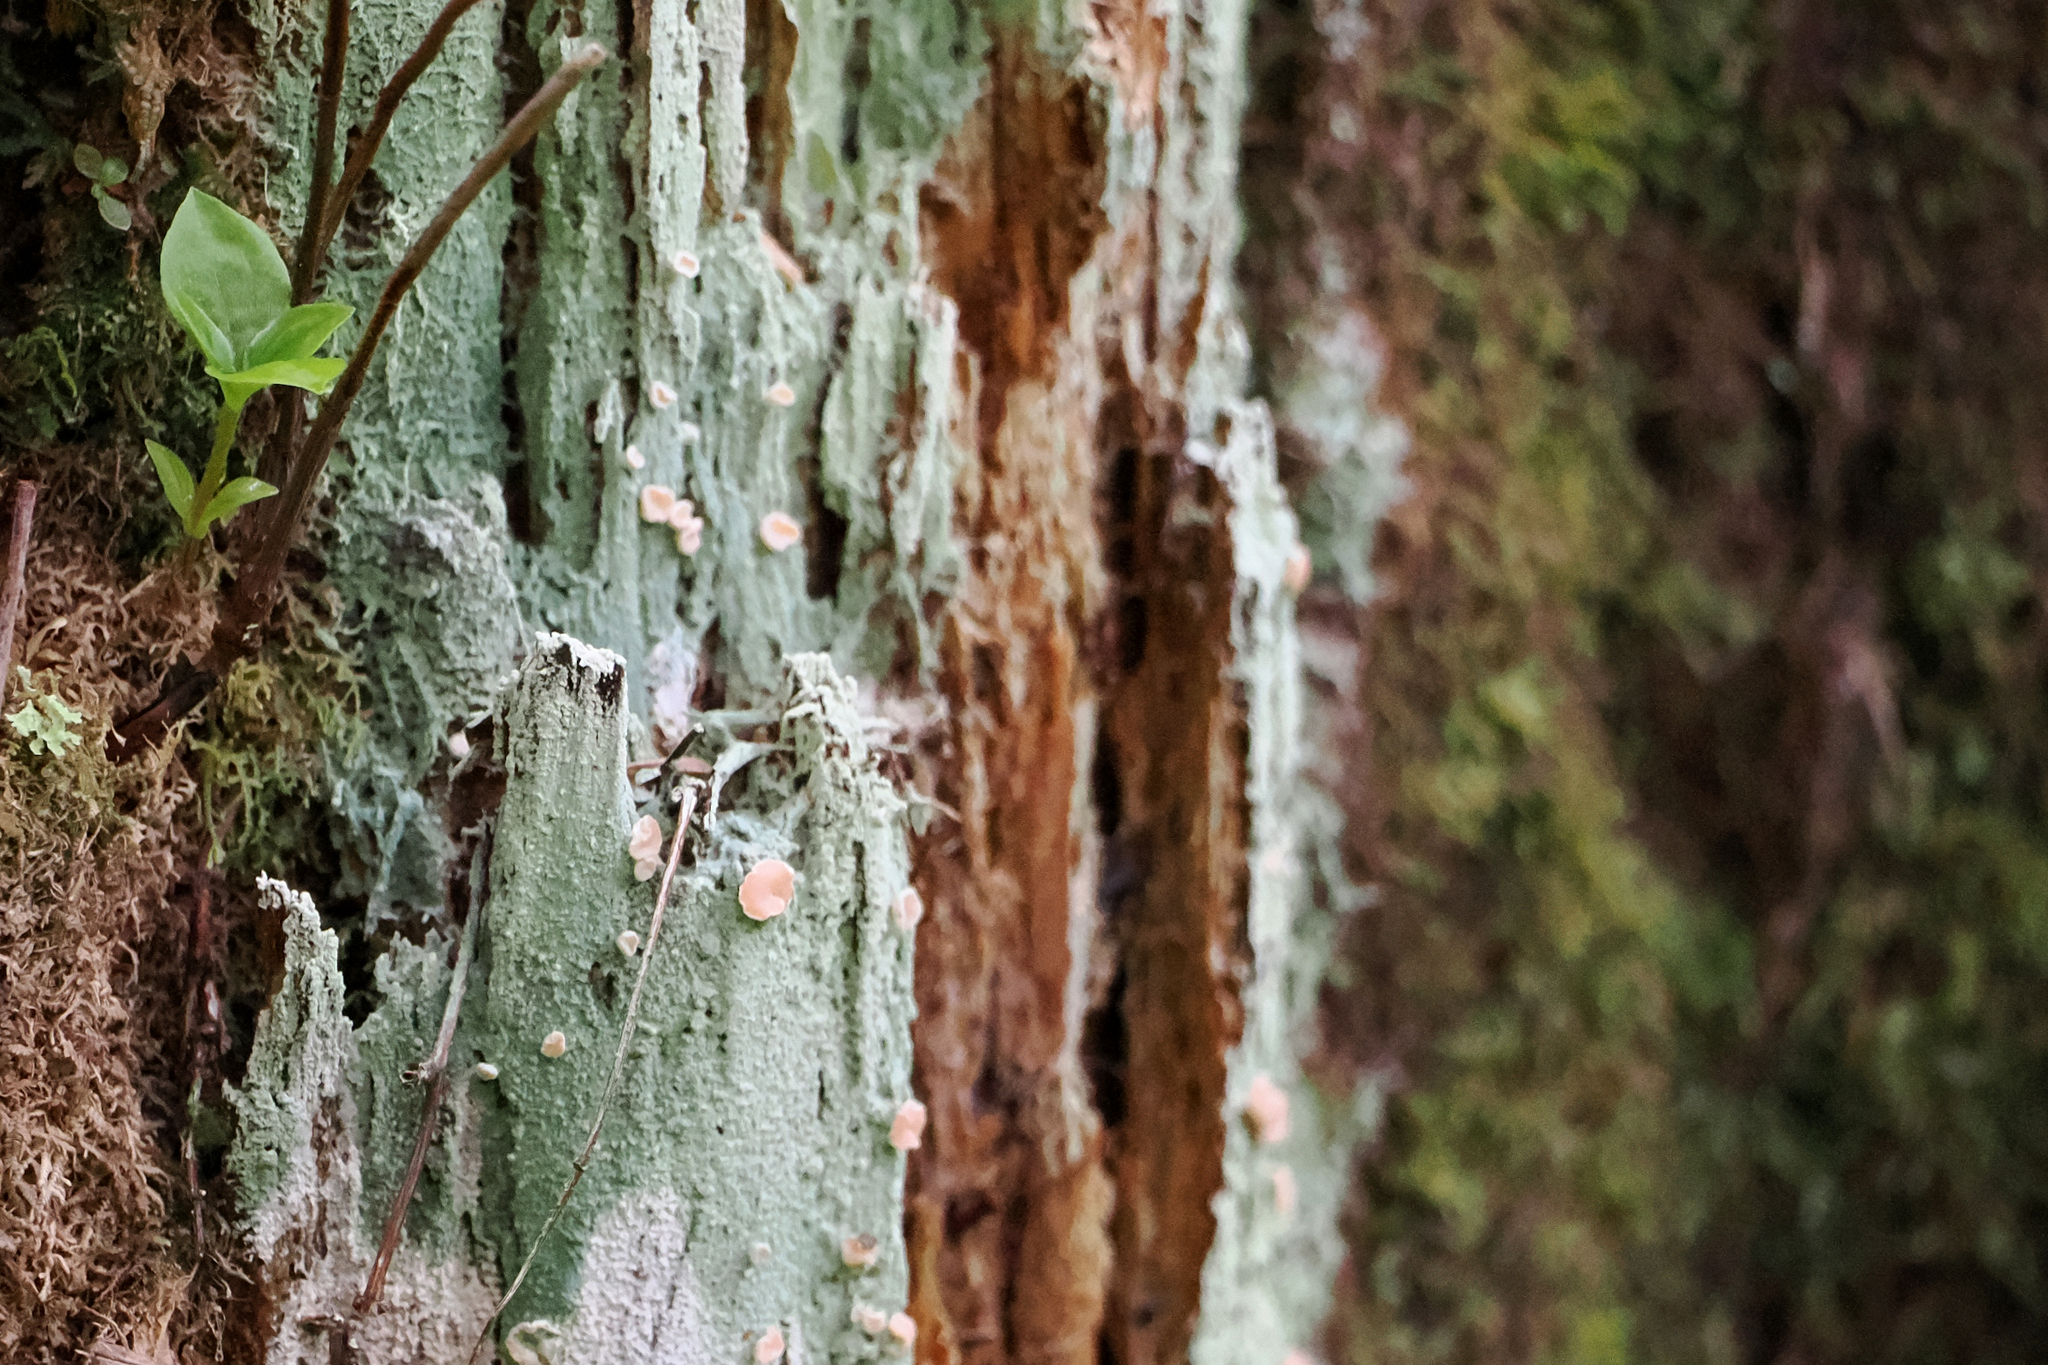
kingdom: Fungi
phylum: Ascomycota
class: Lecanoromycetes
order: Pertusariales
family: Icmadophilaceae
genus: Icmadophila
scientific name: Icmadophila ericetorum
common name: Candy lichen
